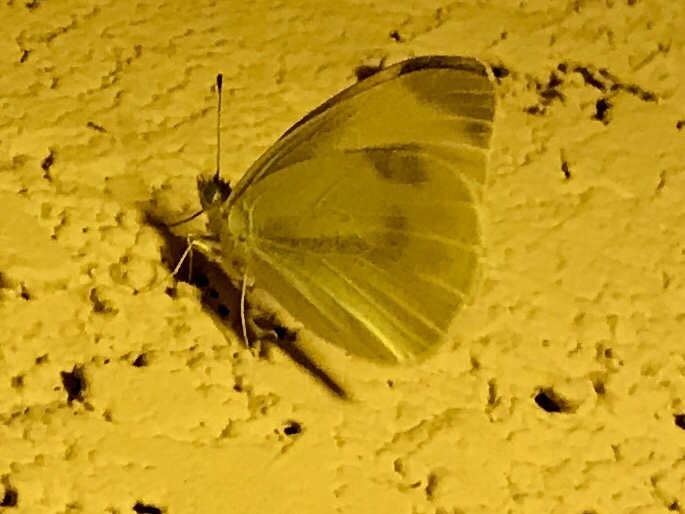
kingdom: Animalia
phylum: Arthropoda
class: Insecta
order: Lepidoptera
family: Pieridae
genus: Pieris
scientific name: Pieris rapae
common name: Small white
